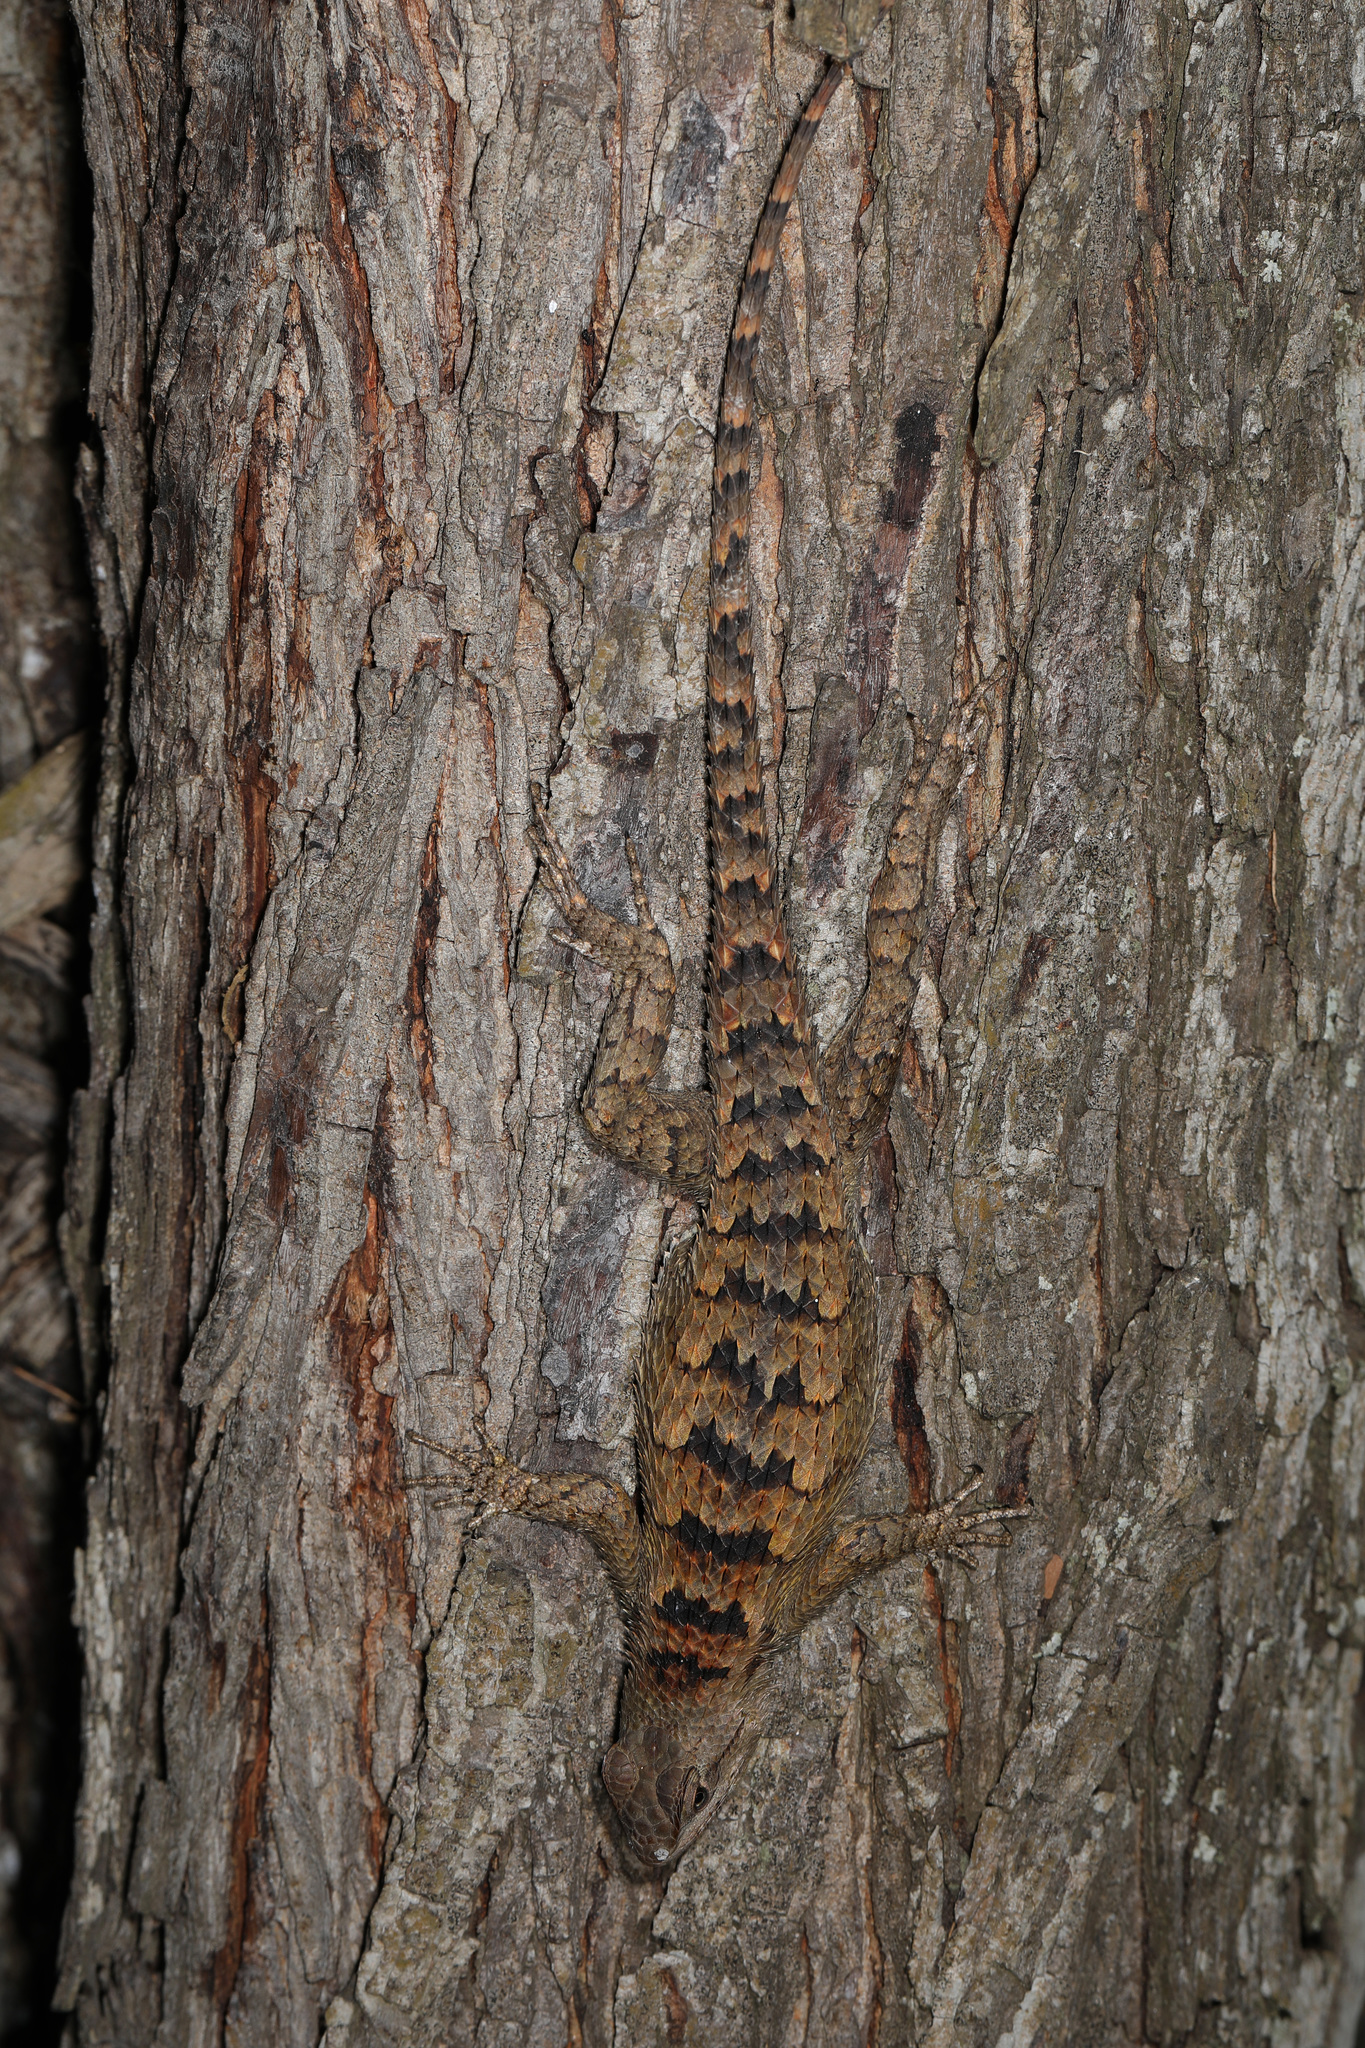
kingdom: Animalia
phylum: Chordata
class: Squamata
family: Phrynosomatidae
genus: Sceloporus
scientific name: Sceloporus olivaceus
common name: Texas spiny lizard
